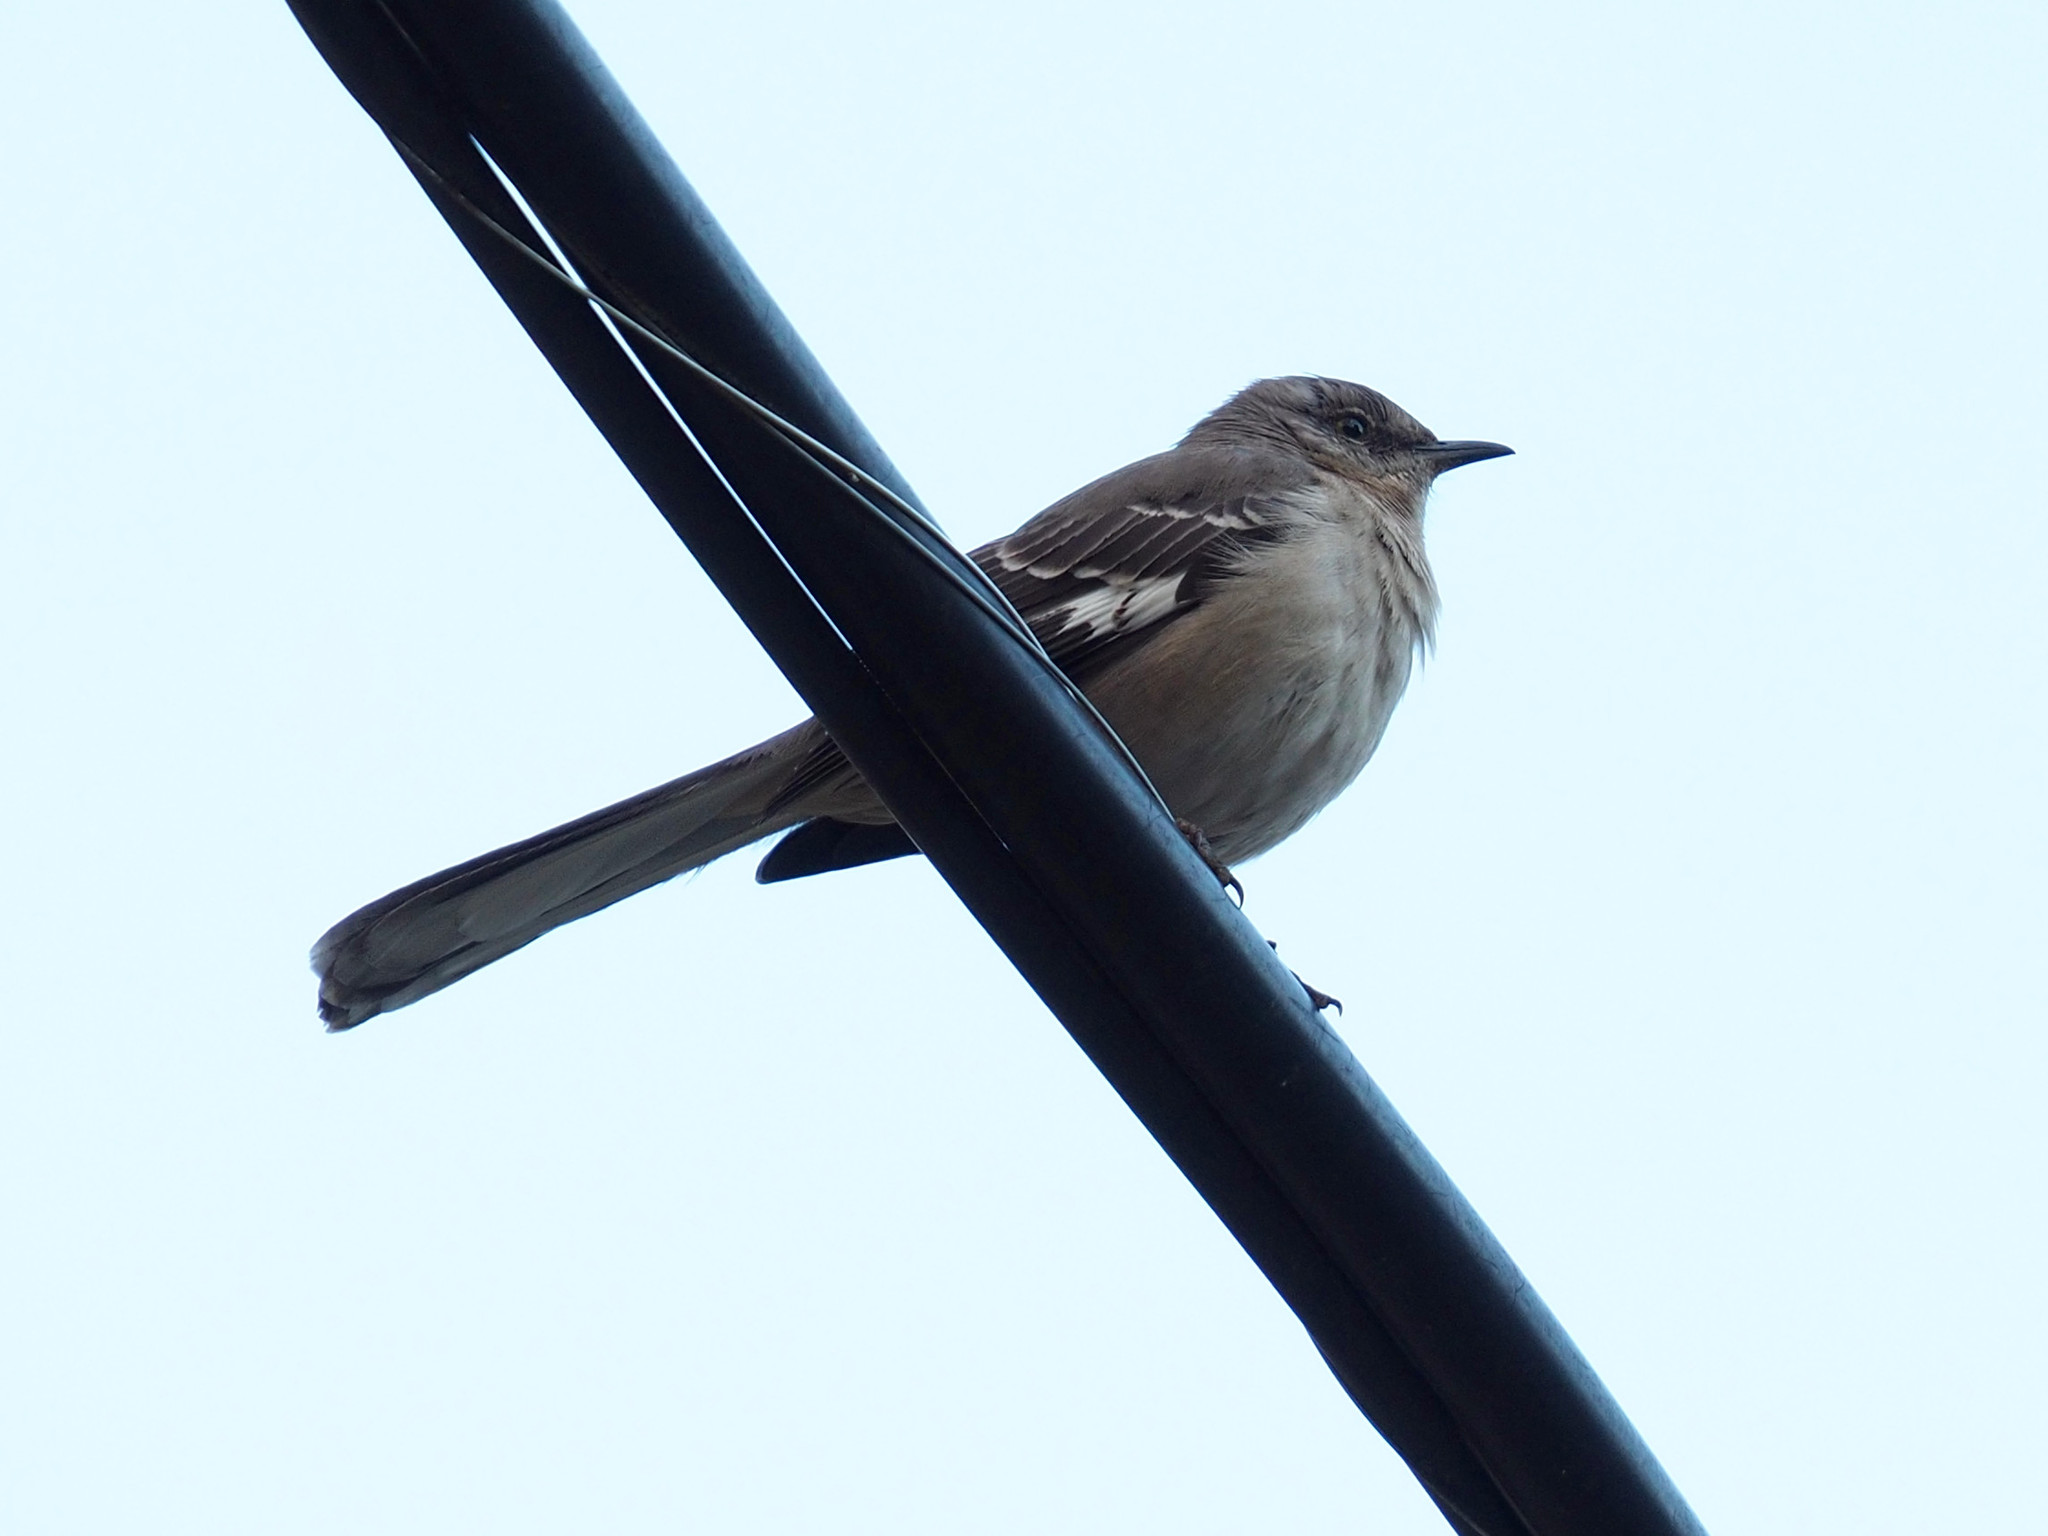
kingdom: Animalia
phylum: Chordata
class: Aves
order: Passeriformes
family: Mimidae
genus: Mimus
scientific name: Mimus polyglottos
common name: Northern mockingbird
